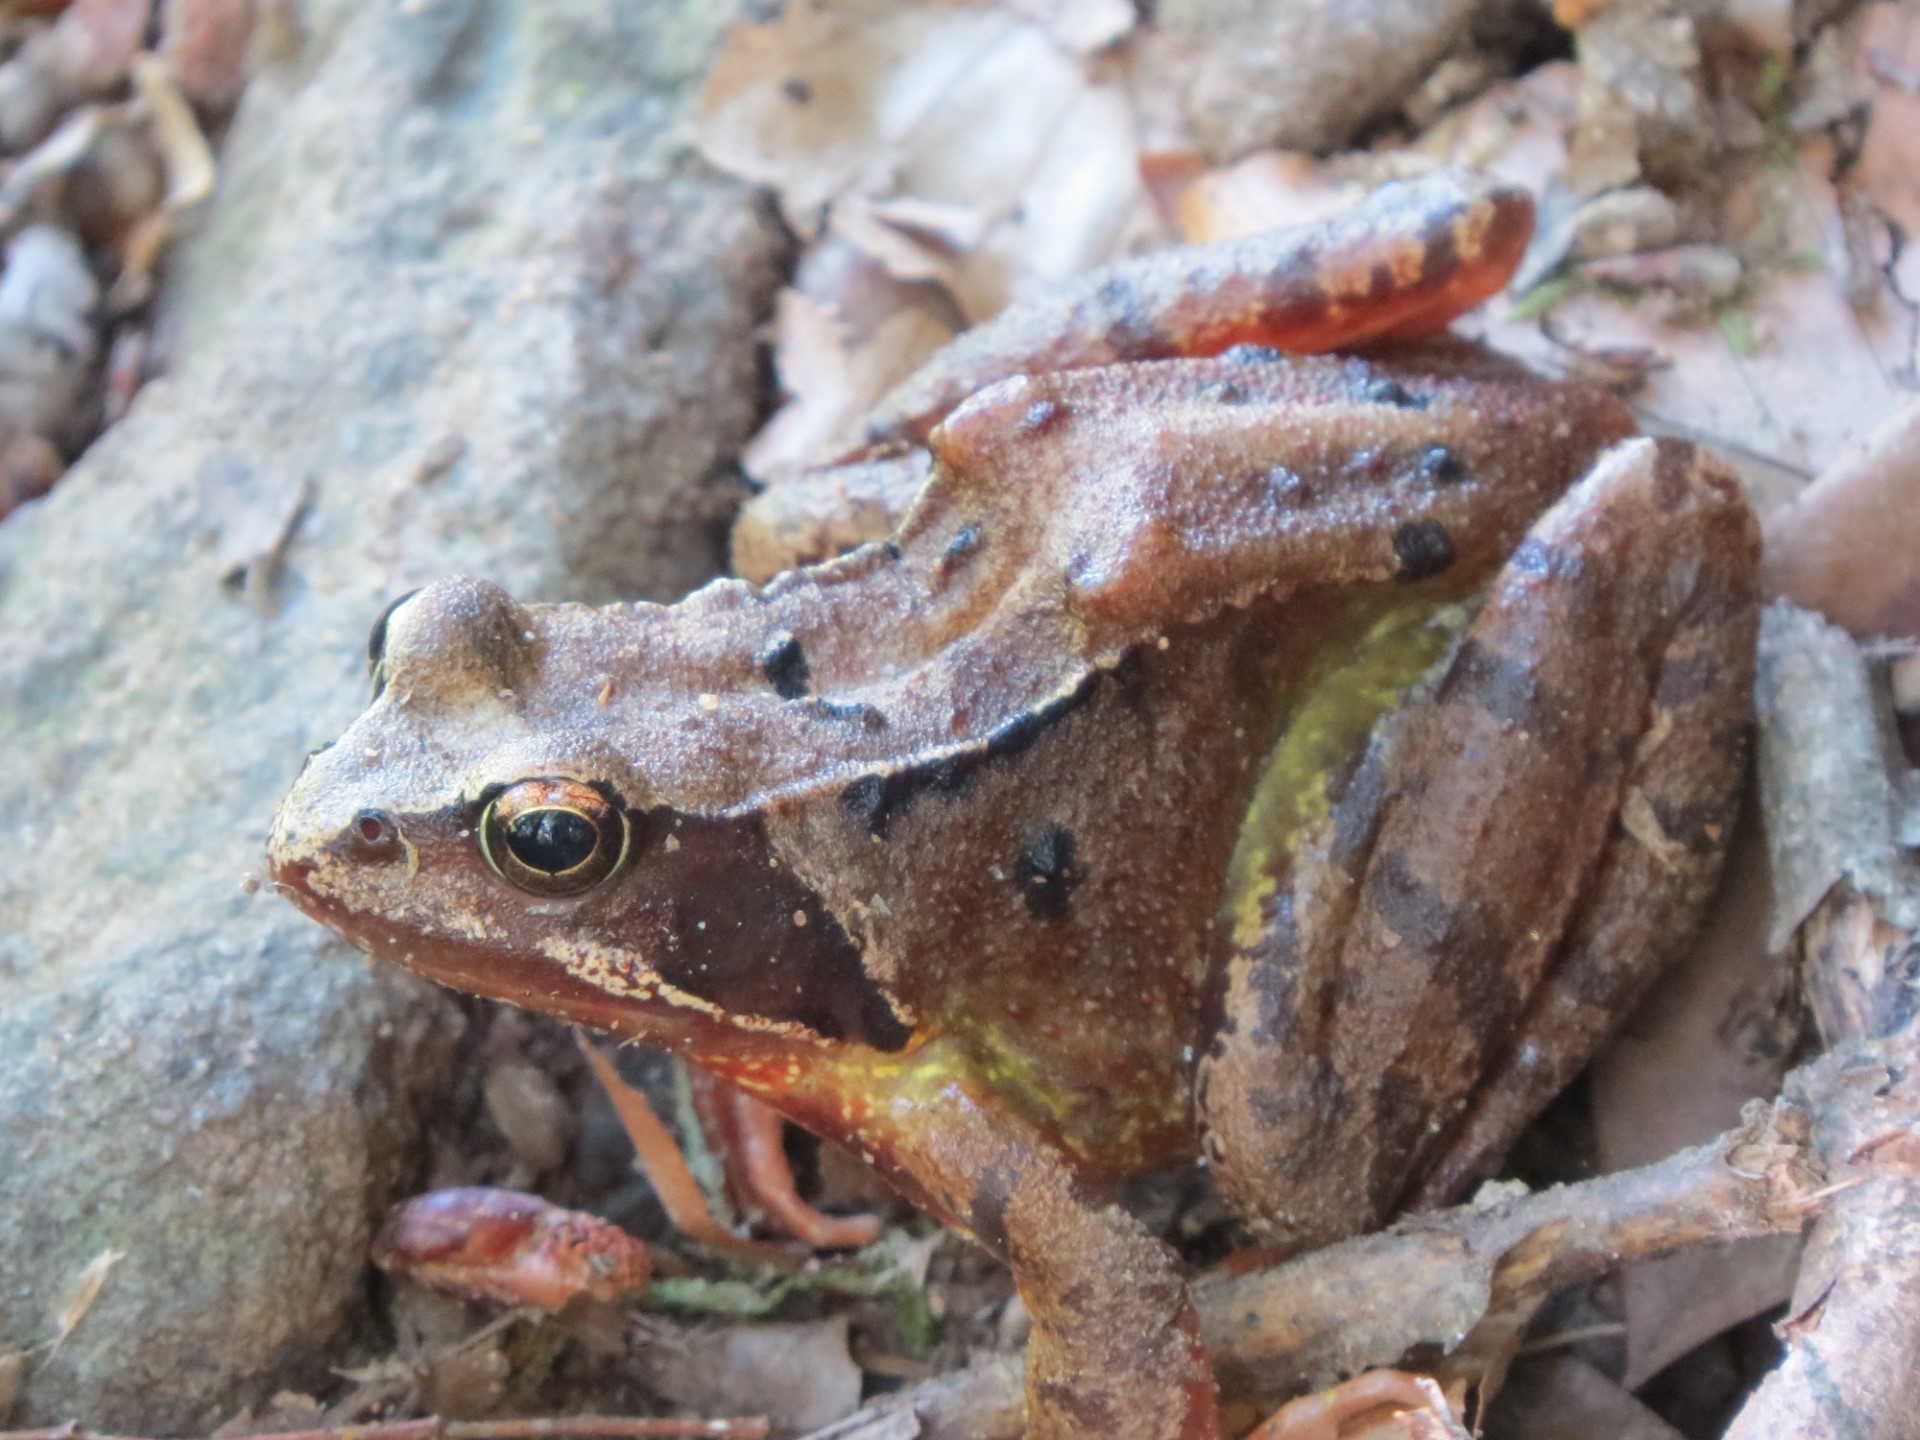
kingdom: Animalia
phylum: Chordata
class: Amphibia
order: Anura
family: Ranidae
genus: Rana
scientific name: Rana temporaria
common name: Common frog
